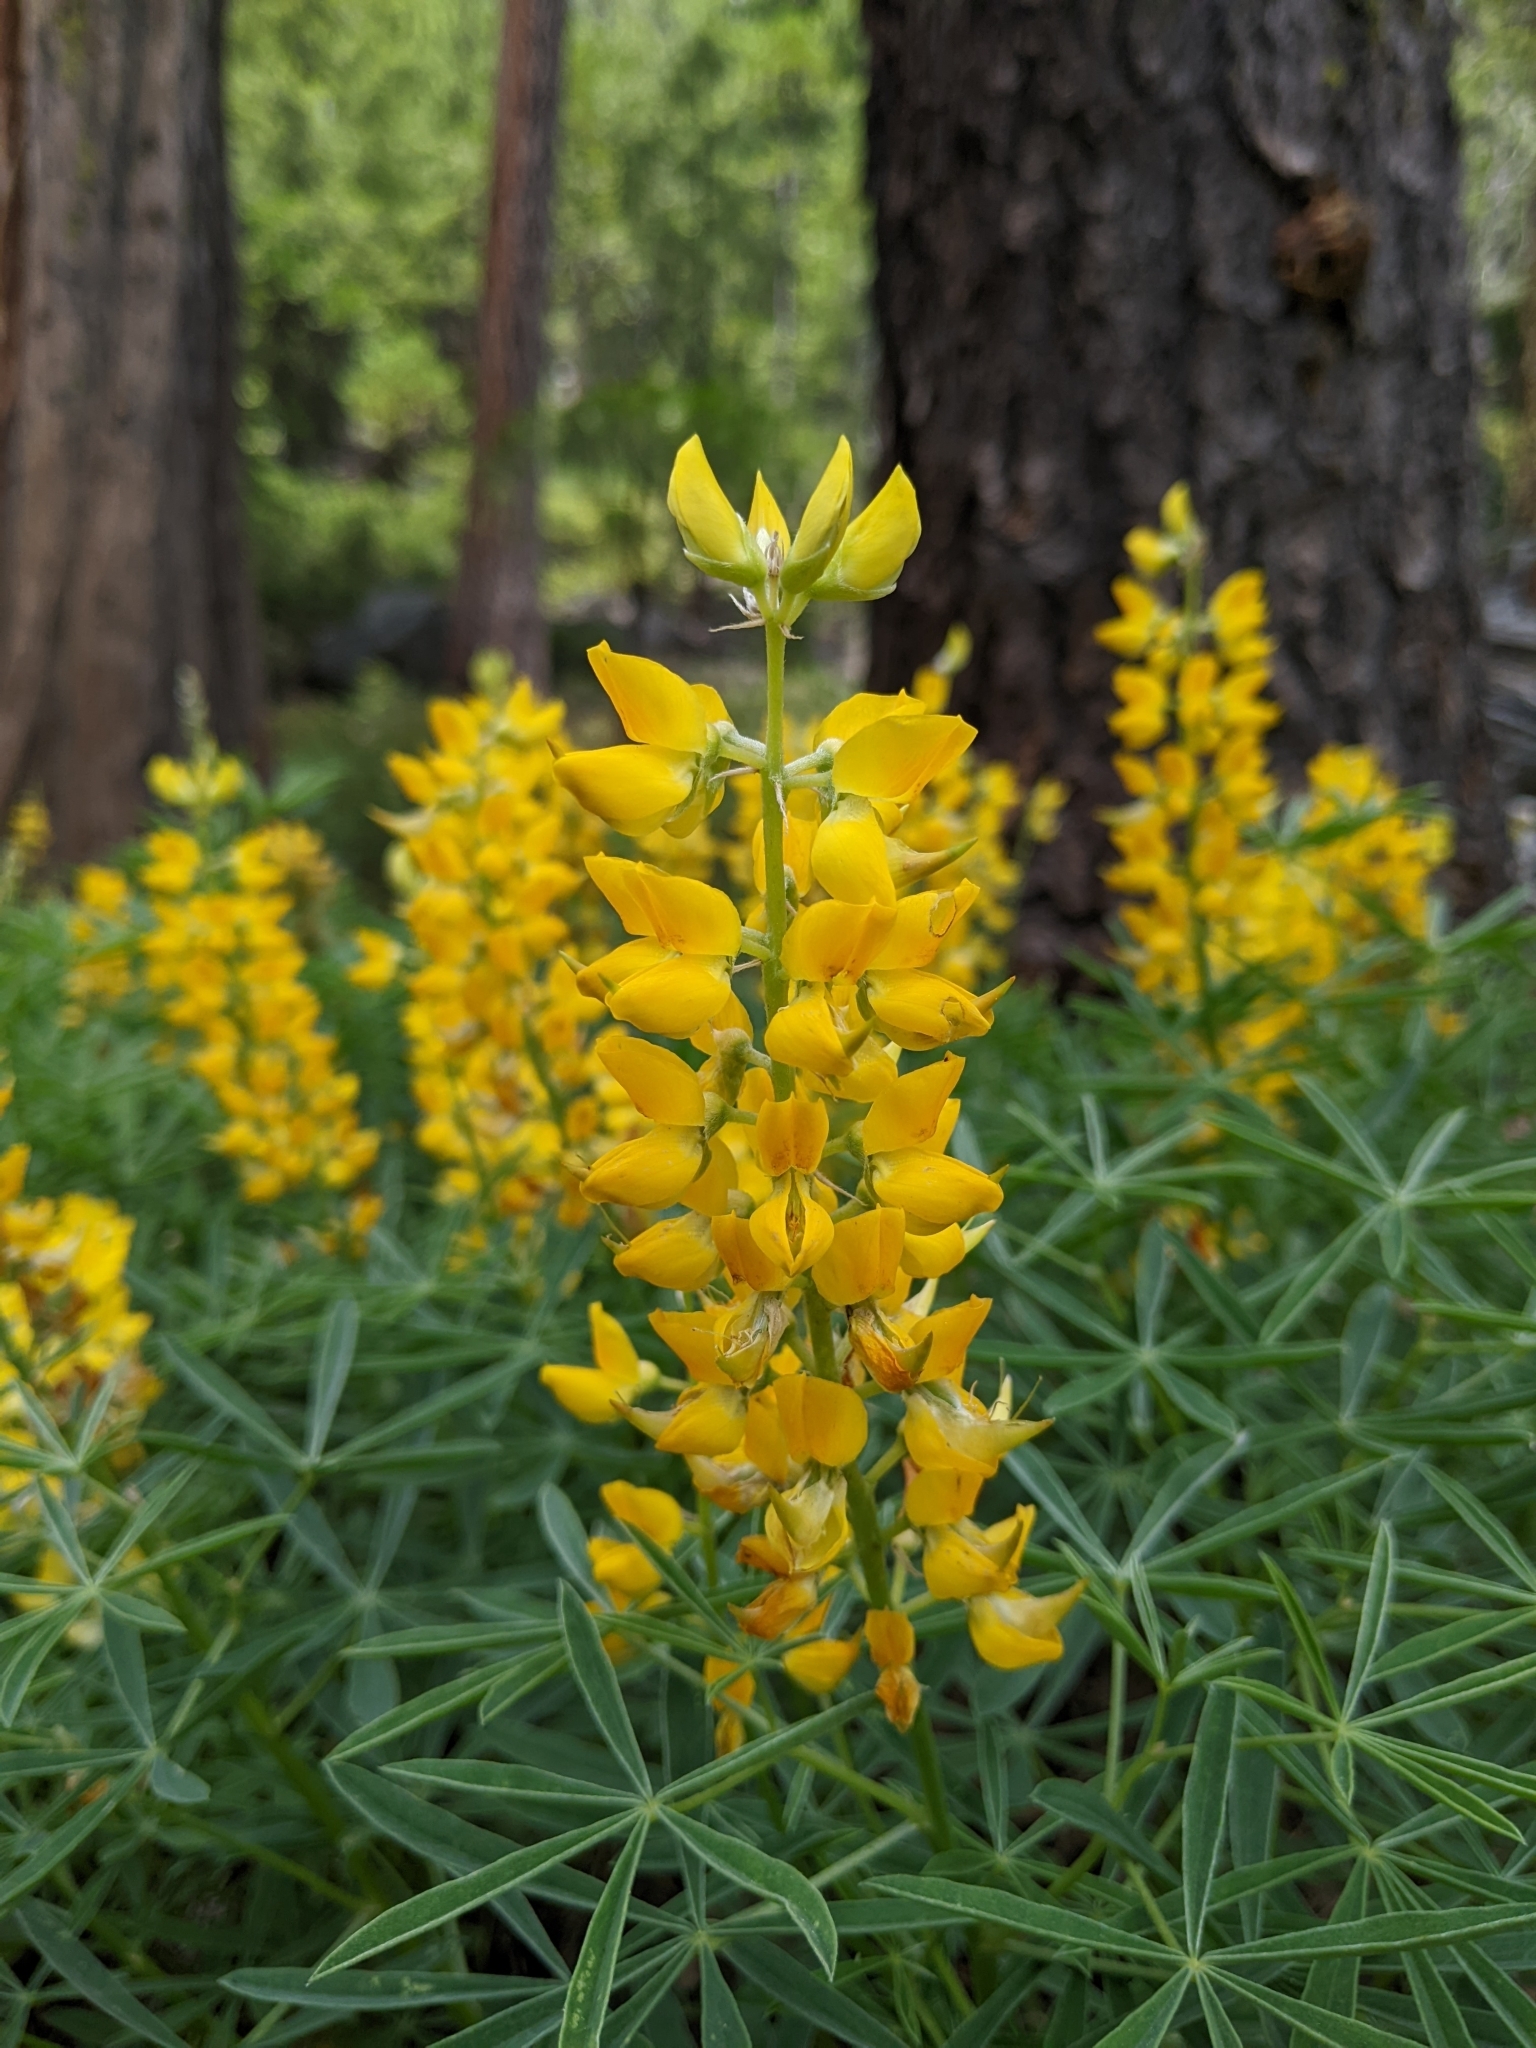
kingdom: Plantae
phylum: Tracheophyta
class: Magnoliopsida
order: Fabales
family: Fabaceae
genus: Lupinus
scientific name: Lupinus croceus
